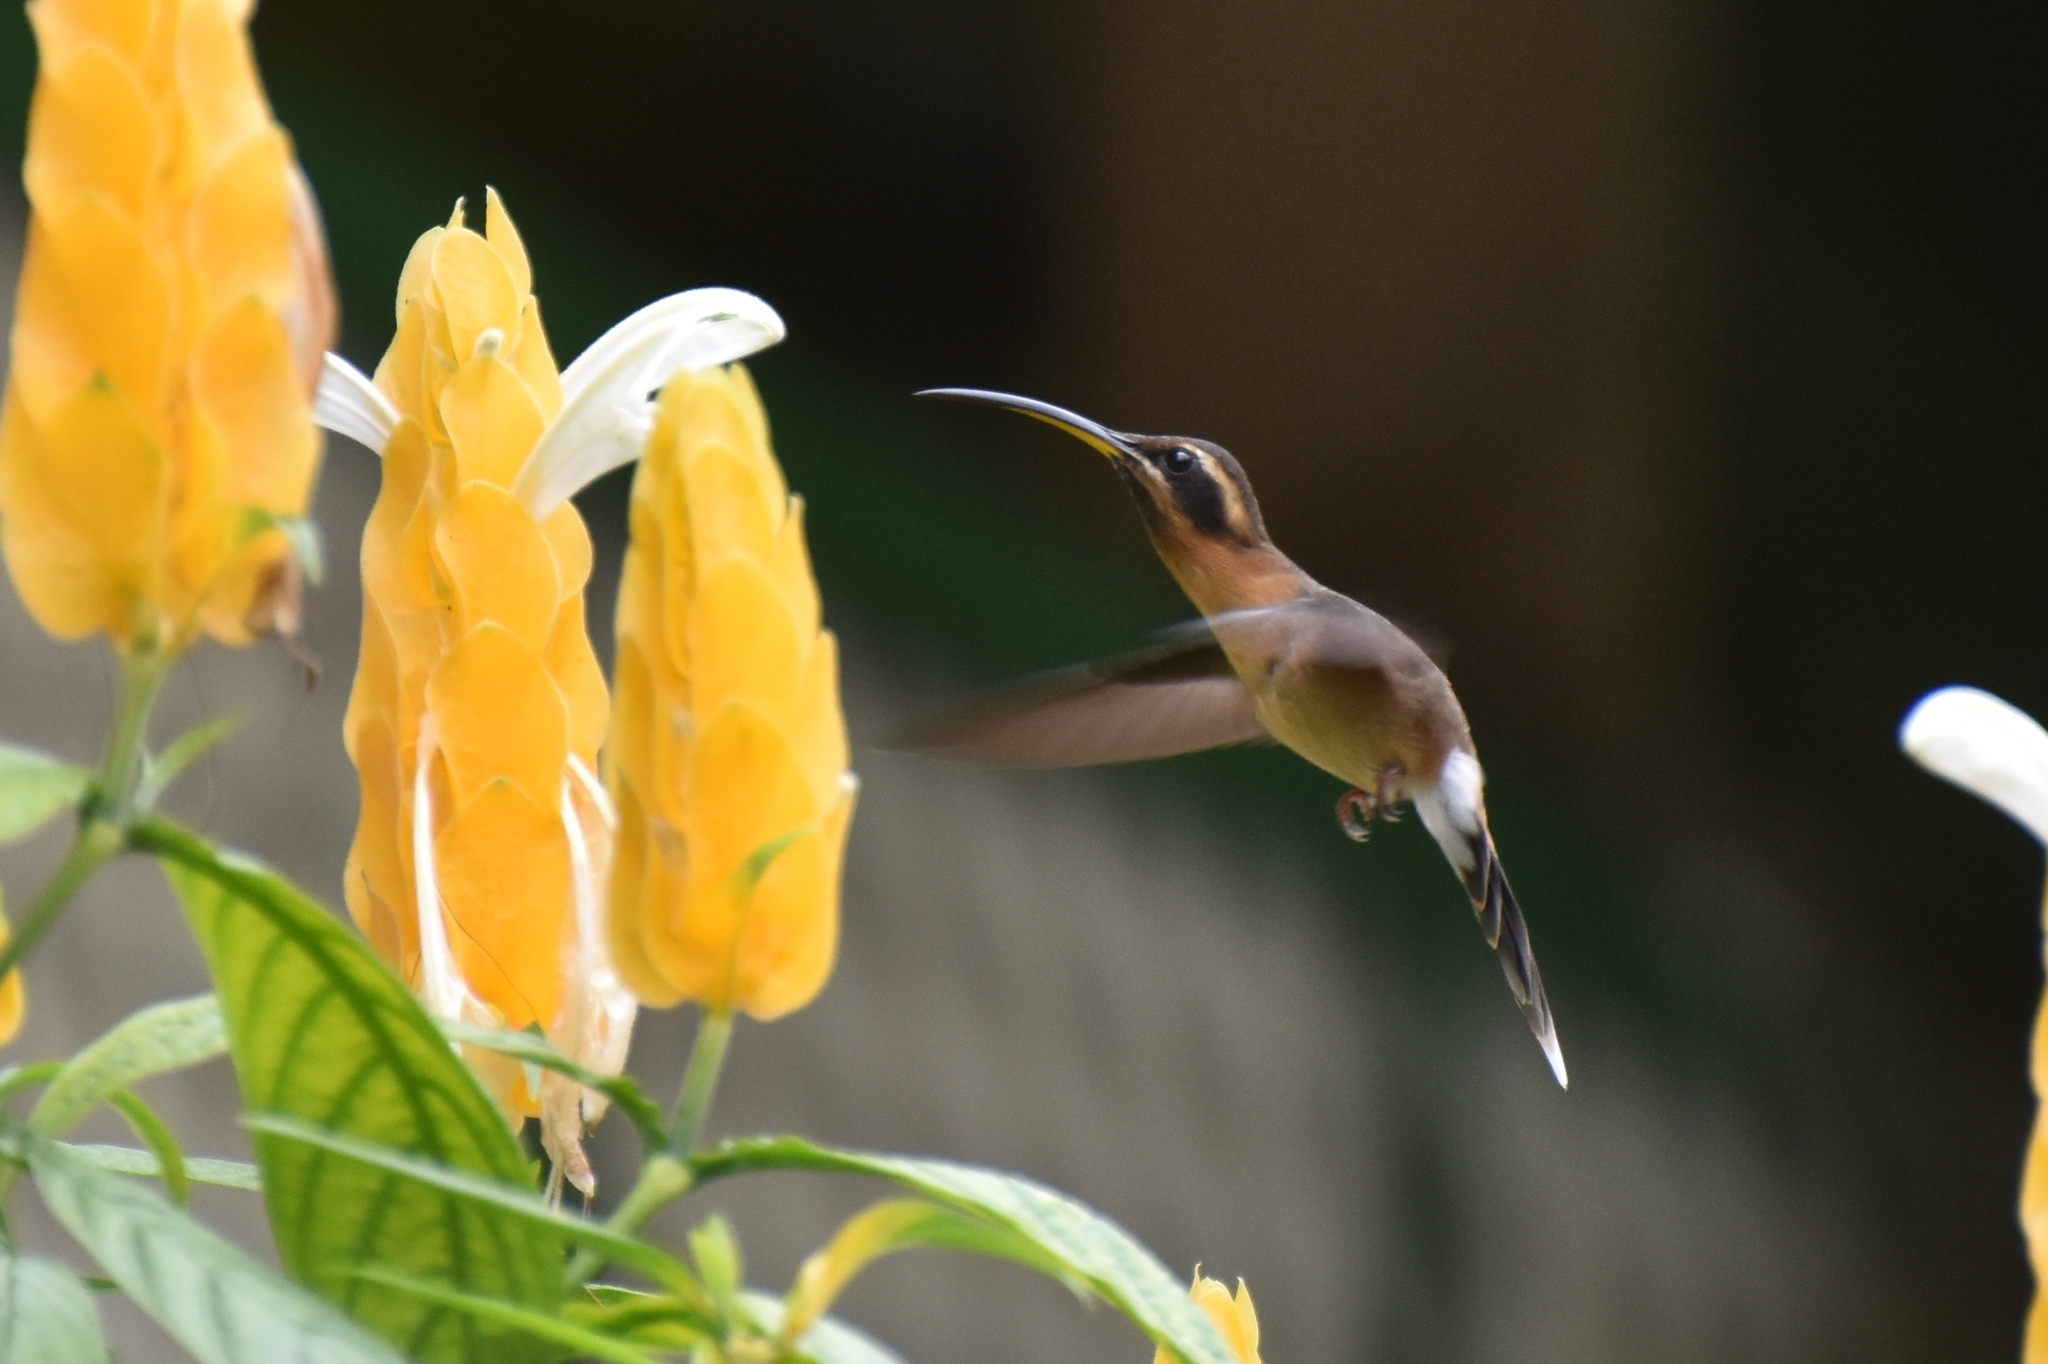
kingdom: Animalia
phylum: Chordata
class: Aves
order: Apodiformes
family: Trochilidae
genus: Phaethornis
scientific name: Phaethornis longuemareus
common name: Little hermit
